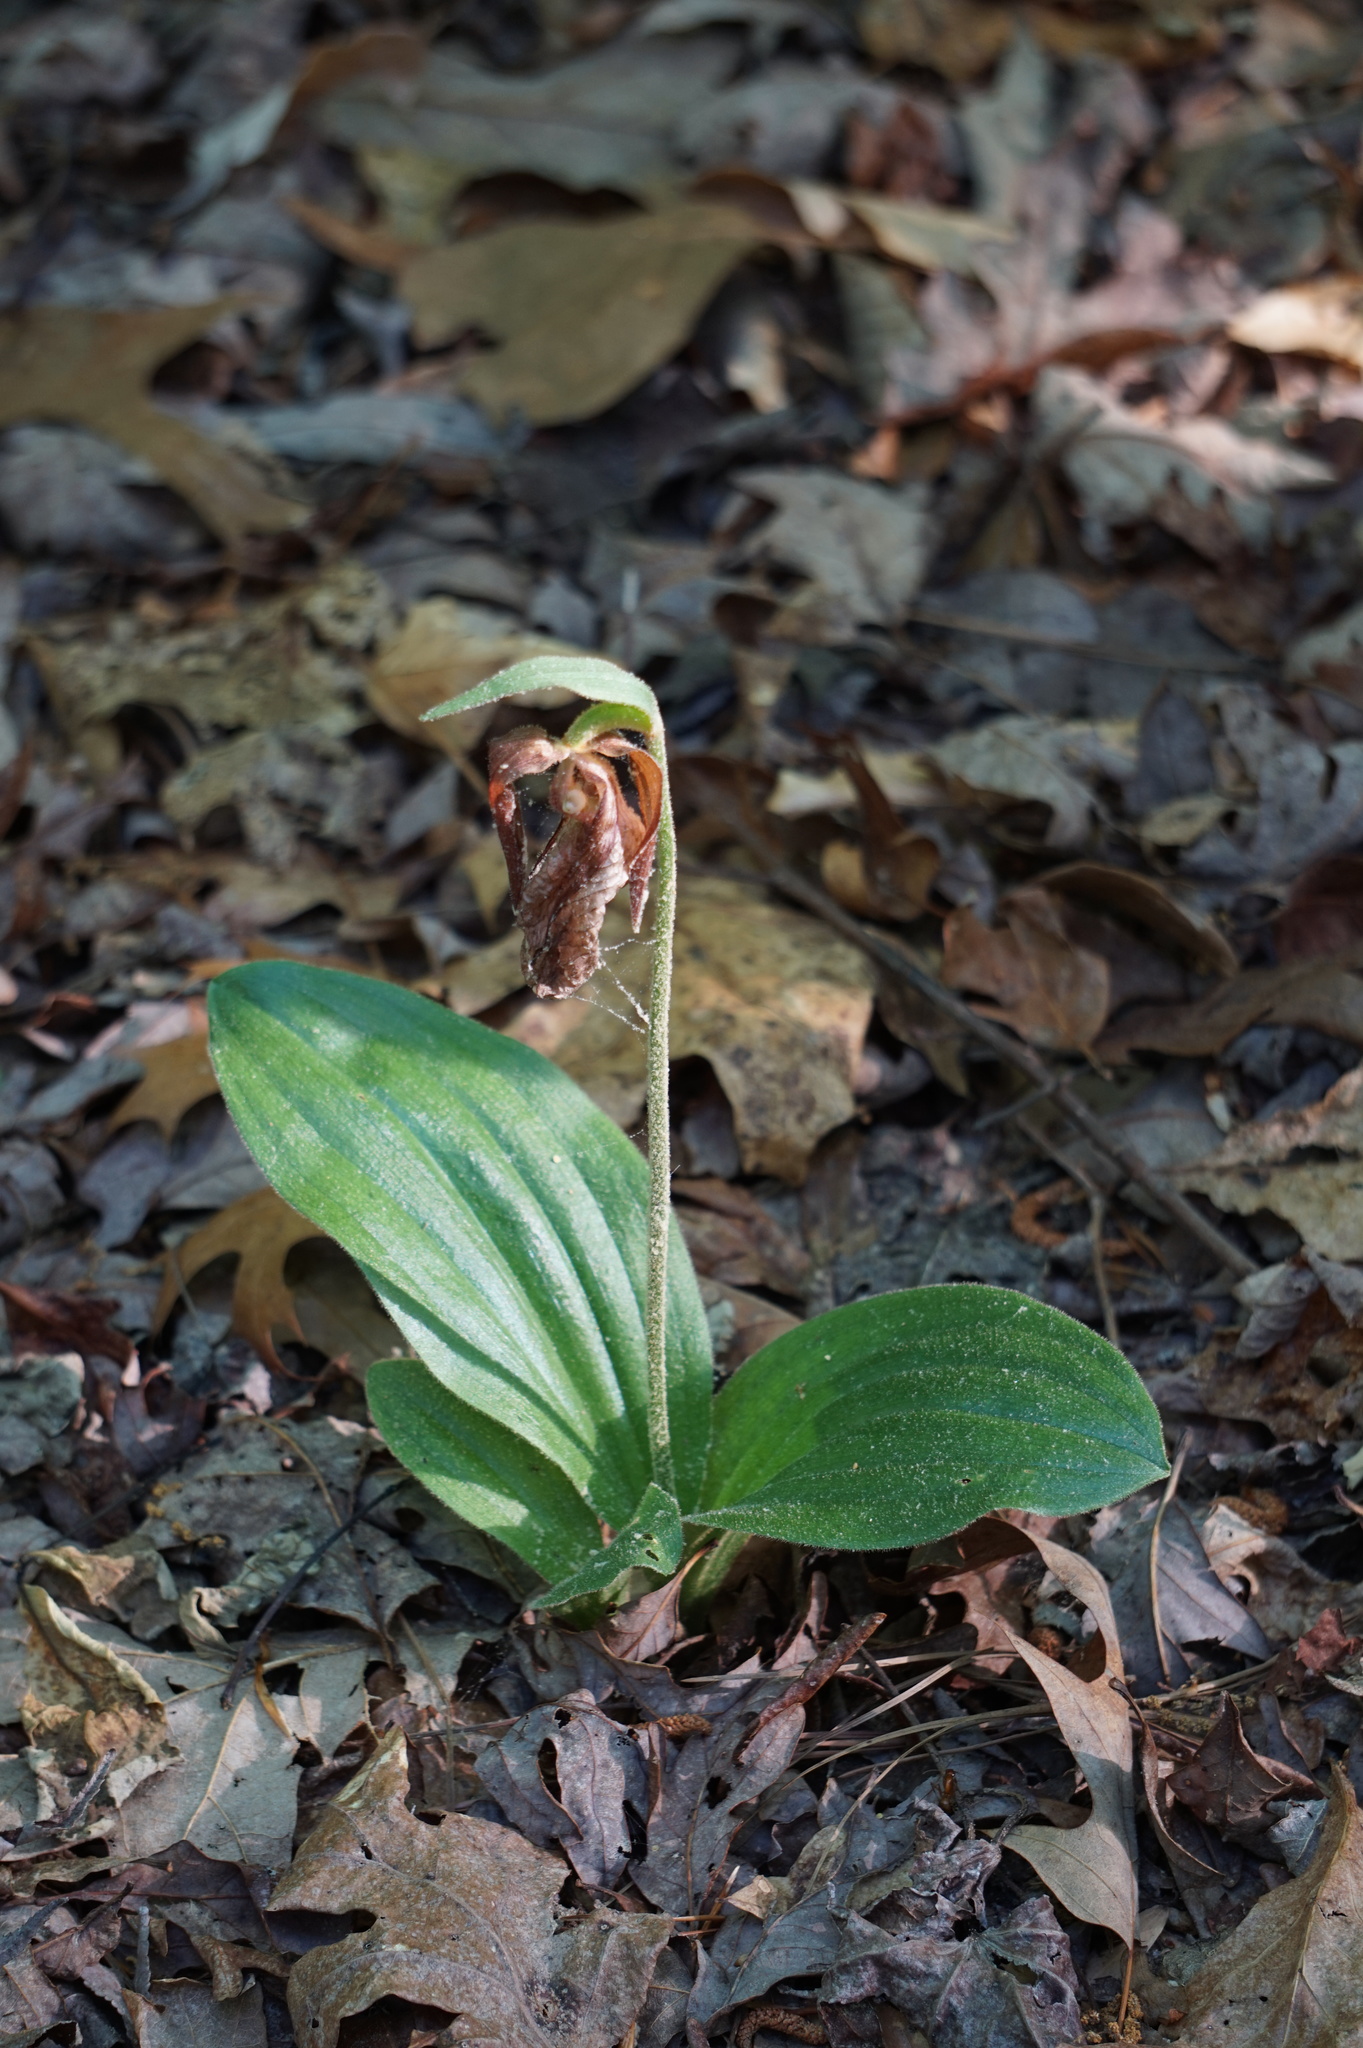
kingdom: Plantae
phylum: Tracheophyta
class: Liliopsida
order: Asparagales
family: Orchidaceae
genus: Cypripedium
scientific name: Cypripedium acaule
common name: Pink lady's-slipper
